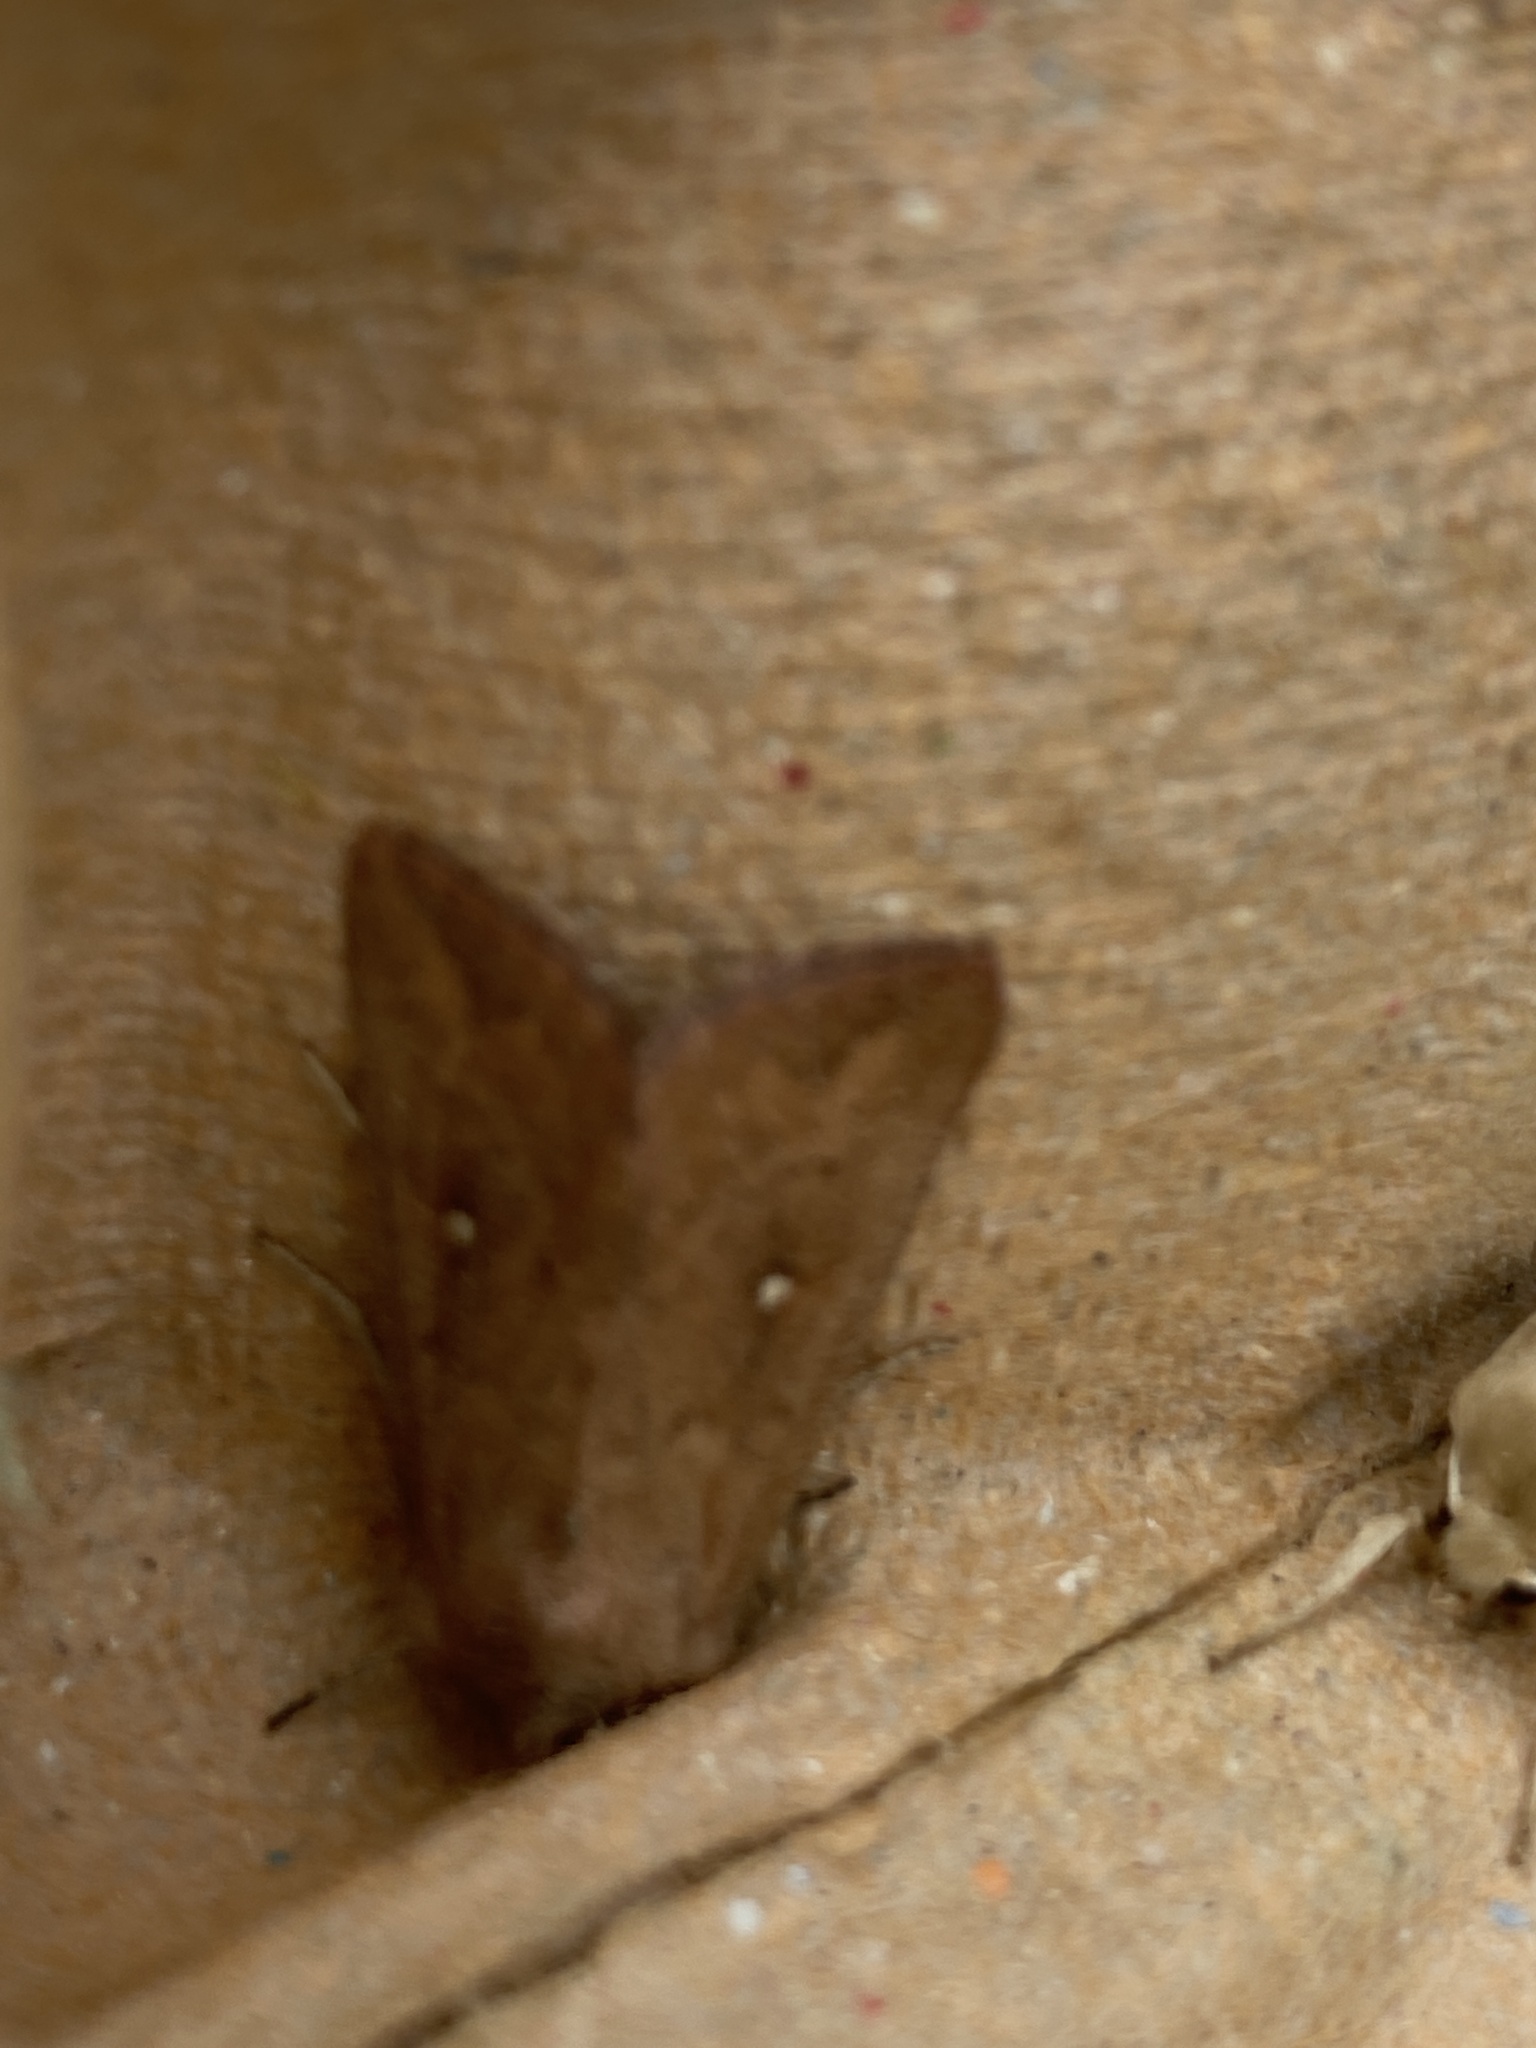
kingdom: Animalia
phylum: Arthropoda
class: Insecta
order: Lepidoptera
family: Noctuidae
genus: Mythimna
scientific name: Mythimna albipuncta
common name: White-point
